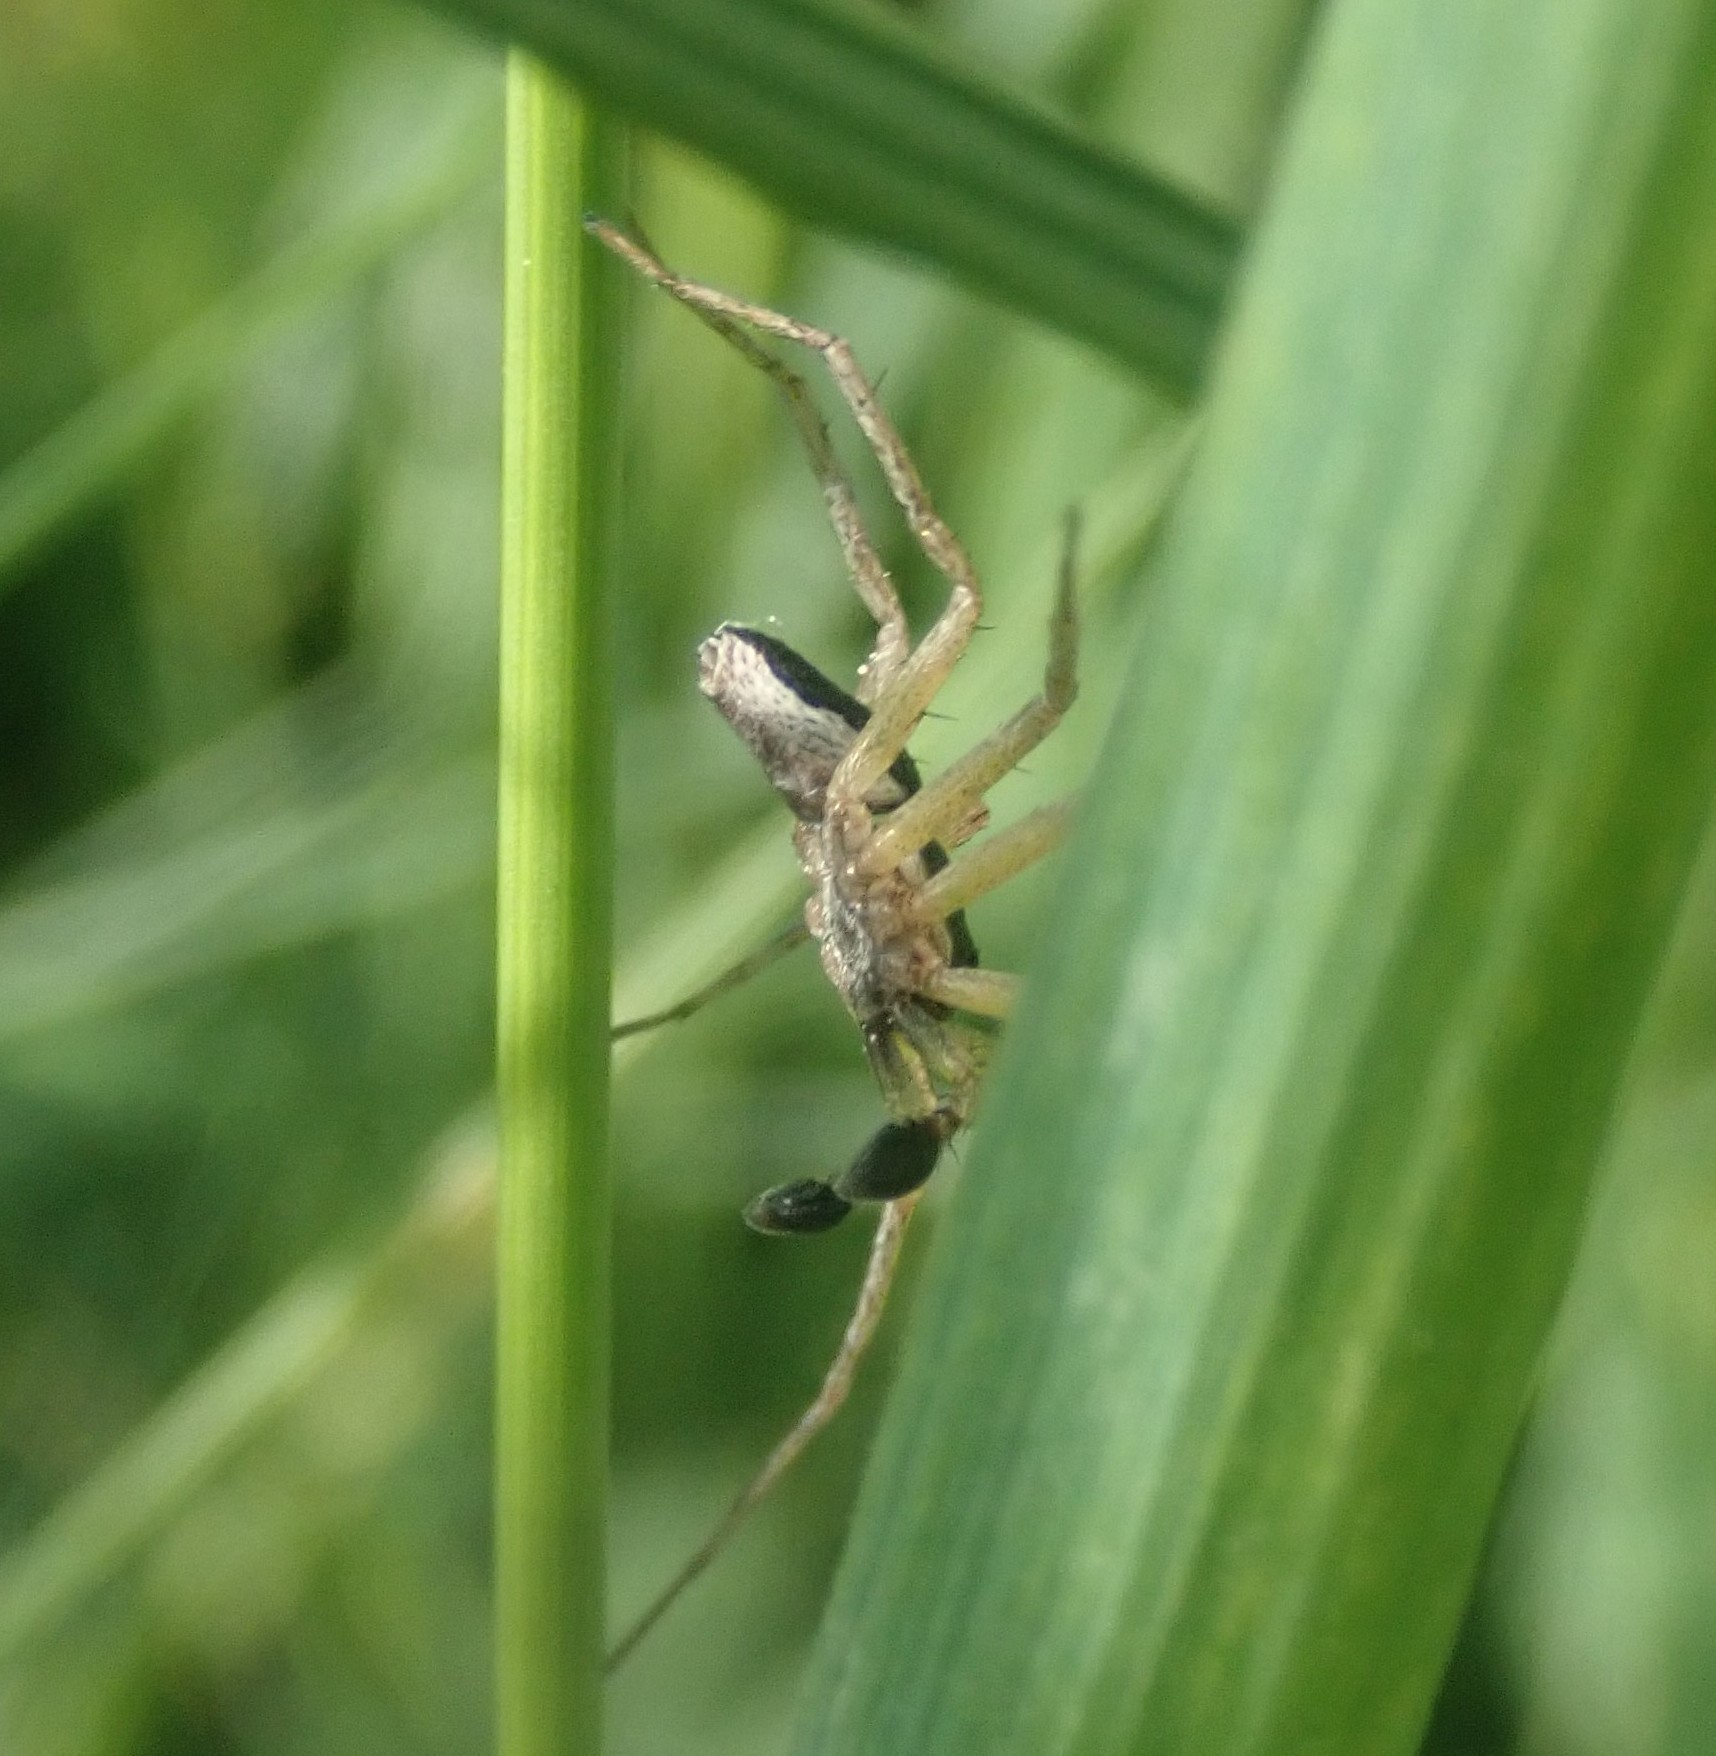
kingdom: Animalia
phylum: Arthropoda
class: Arachnida
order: Araneae
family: Philodromidae
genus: Philodromus
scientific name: Philodromus dispar
